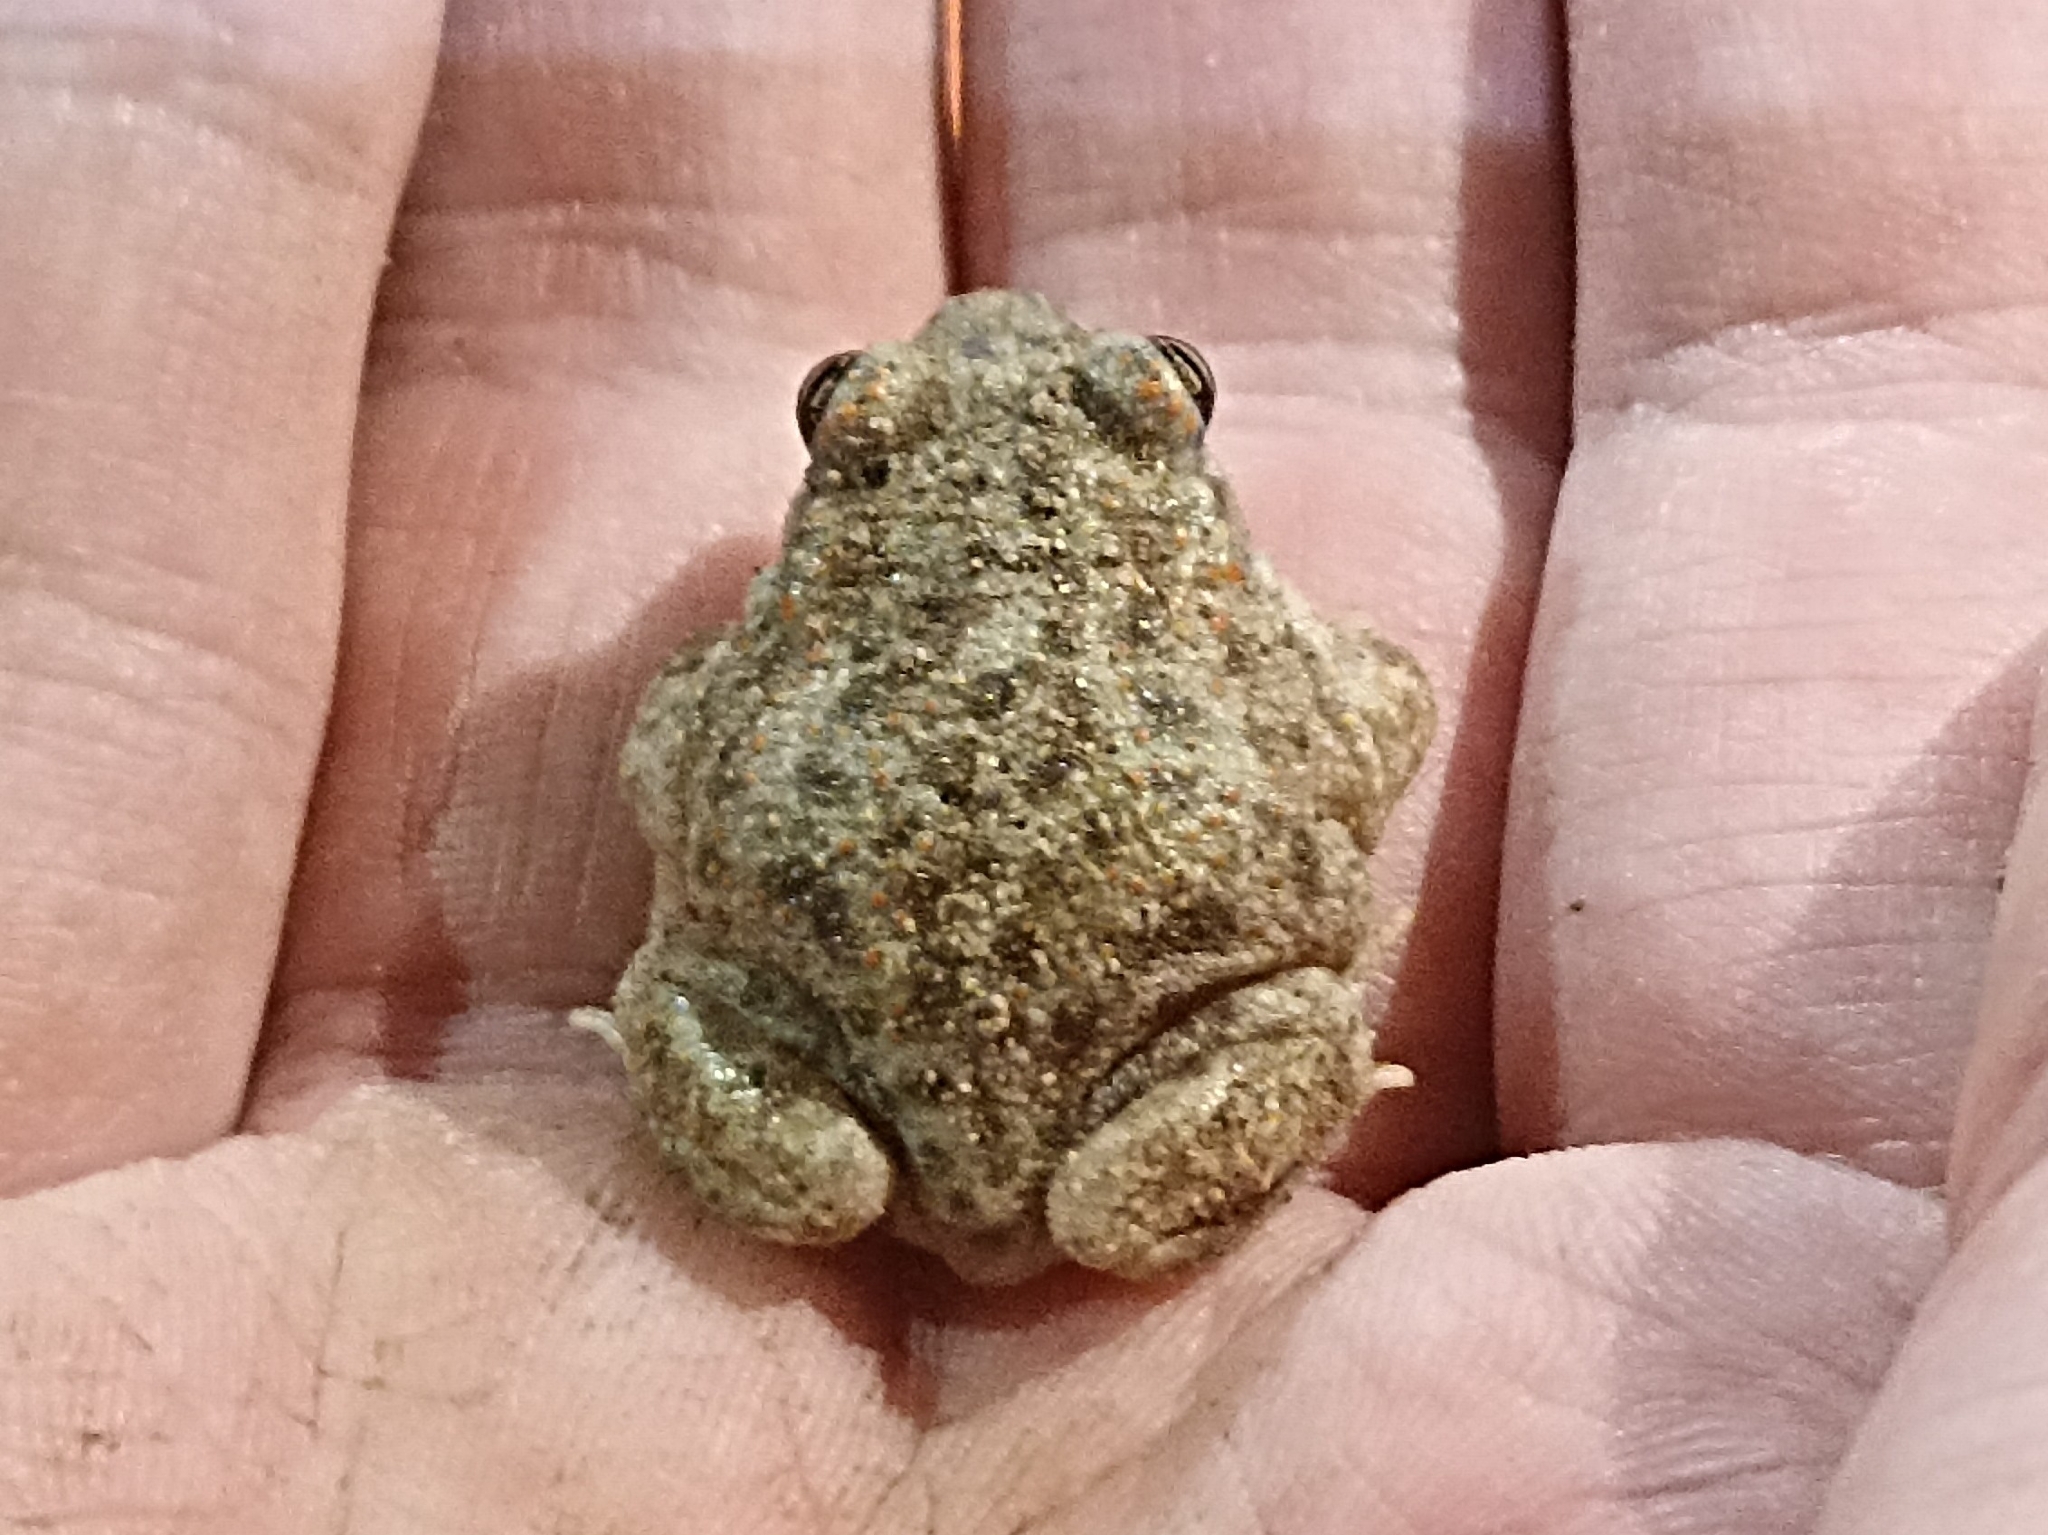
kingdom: Animalia
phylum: Chordata
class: Amphibia
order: Anura
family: Alytidae
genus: Alytes
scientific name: Alytes cisternasii
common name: Iberian midwife toad
